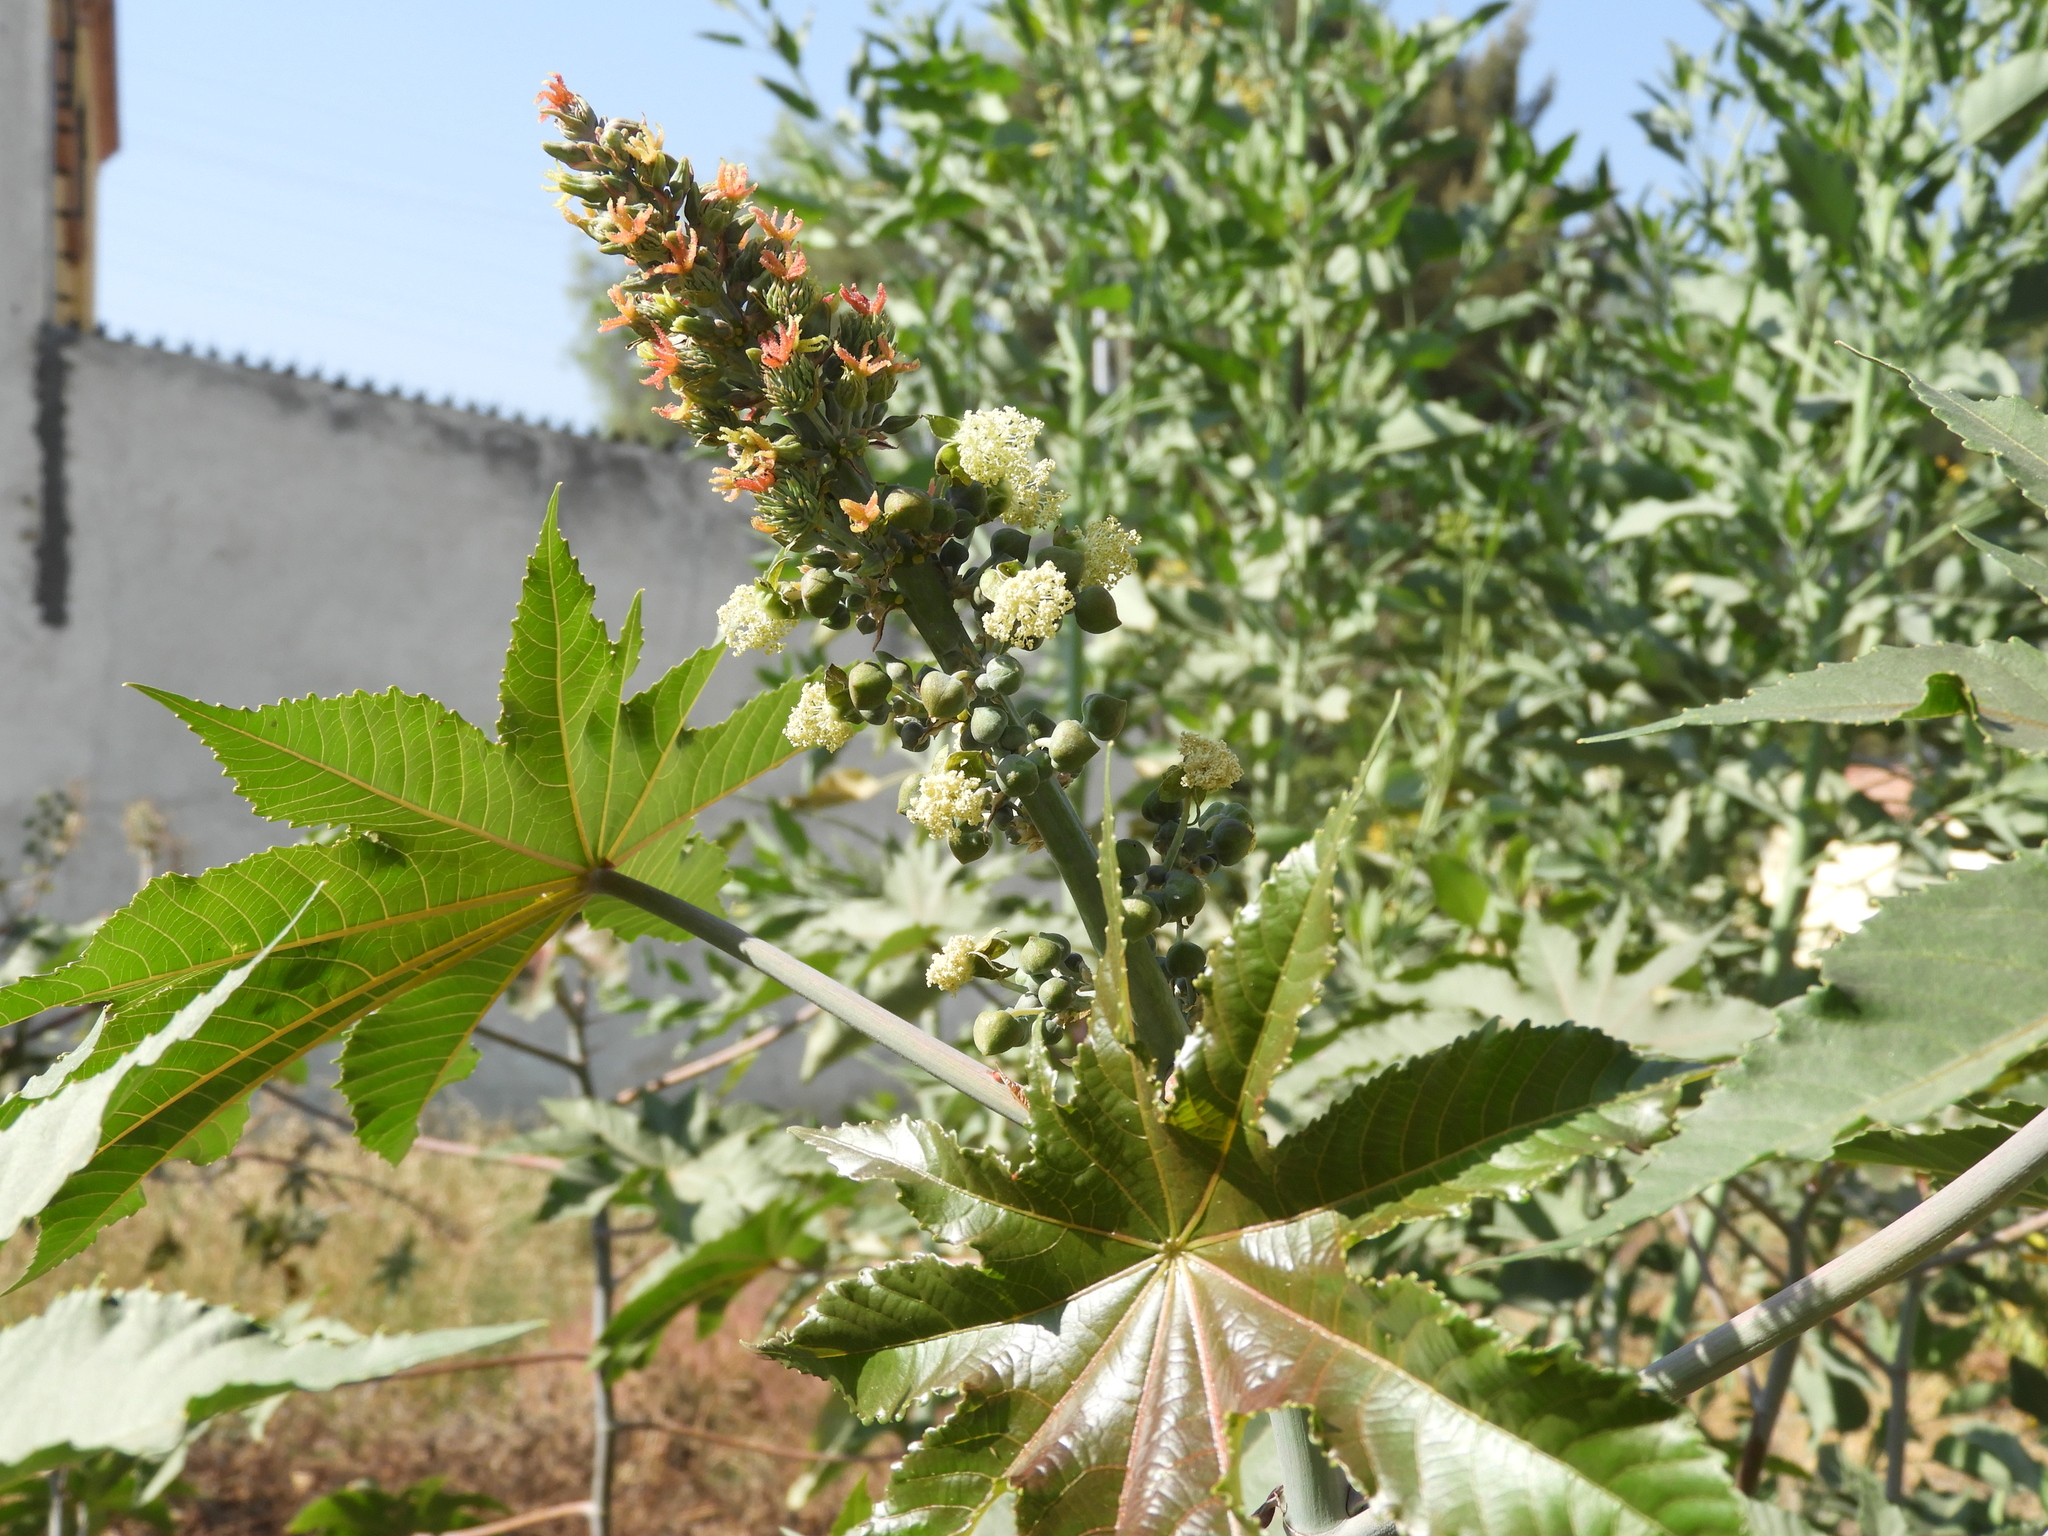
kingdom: Plantae
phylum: Tracheophyta
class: Magnoliopsida
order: Malpighiales
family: Euphorbiaceae
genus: Ricinus
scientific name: Ricinus communis
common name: Castor-oil-plant
